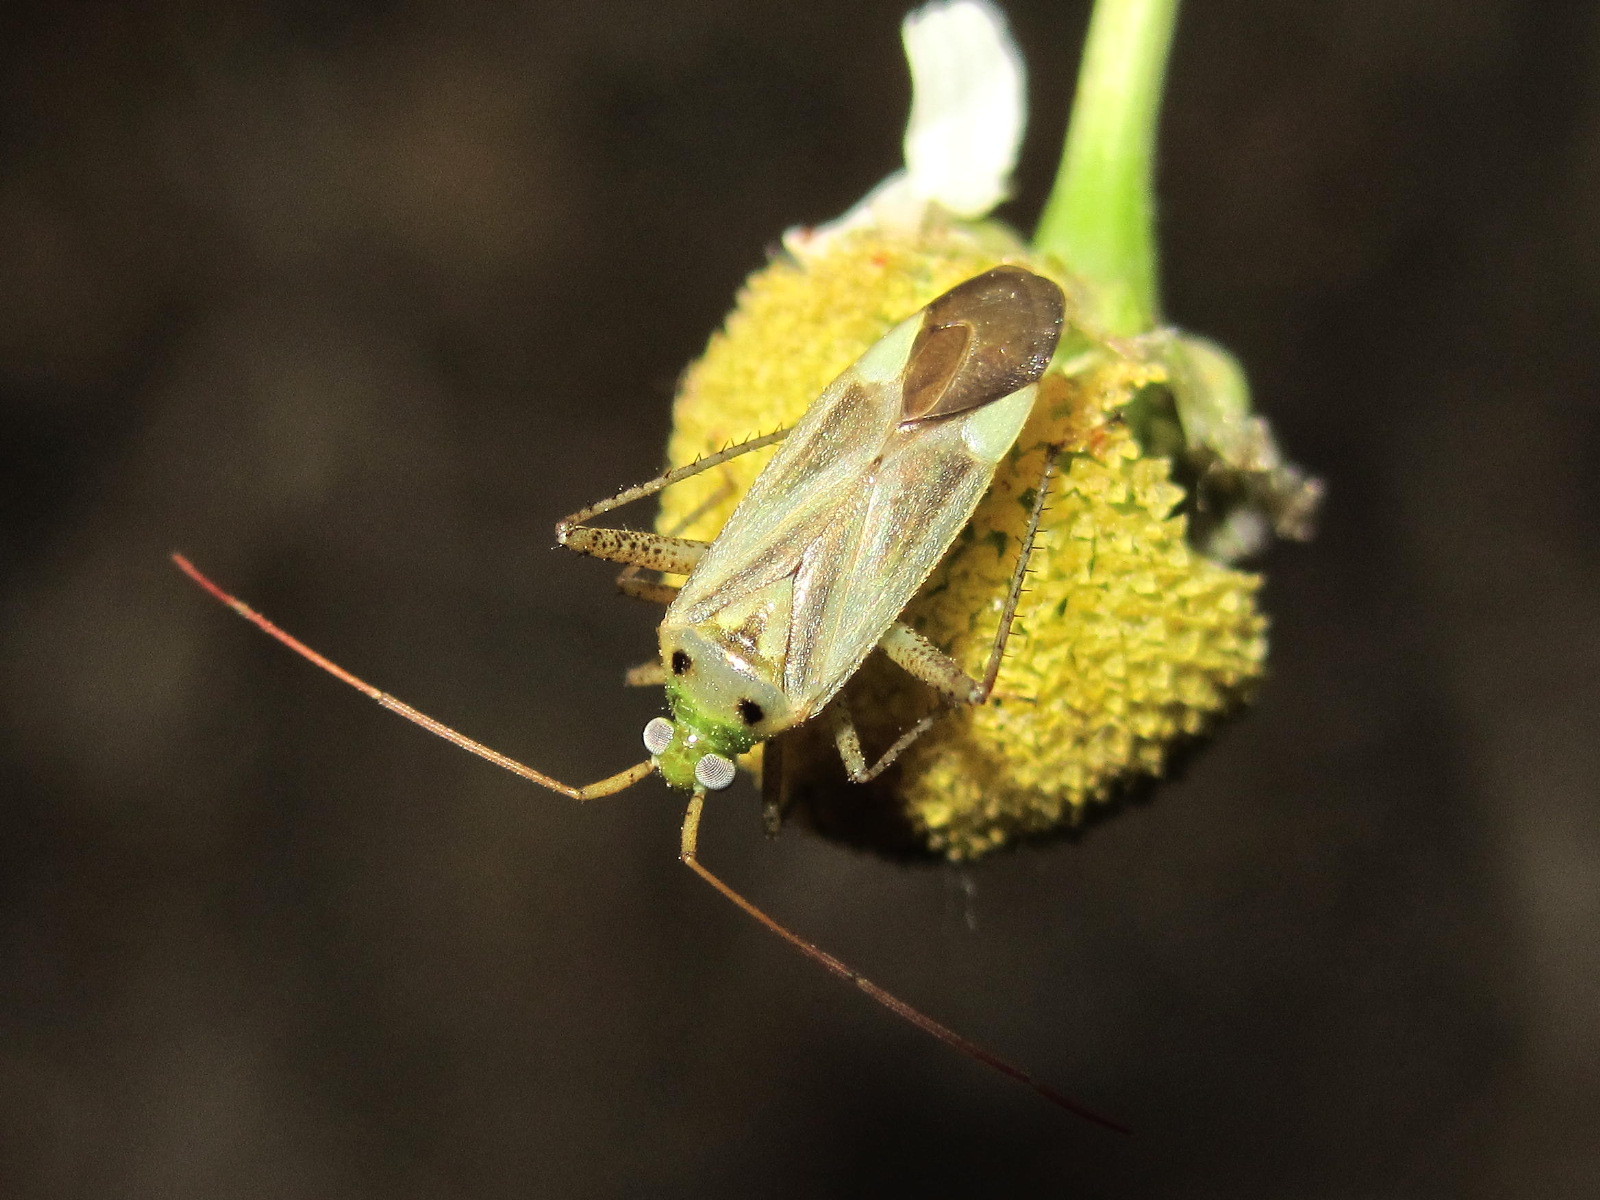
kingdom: Animalia
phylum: Arthropoda
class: Insecta
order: Hemiptera
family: Miridae
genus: Adelphocoris
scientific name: Adelphocoris lineolatus
